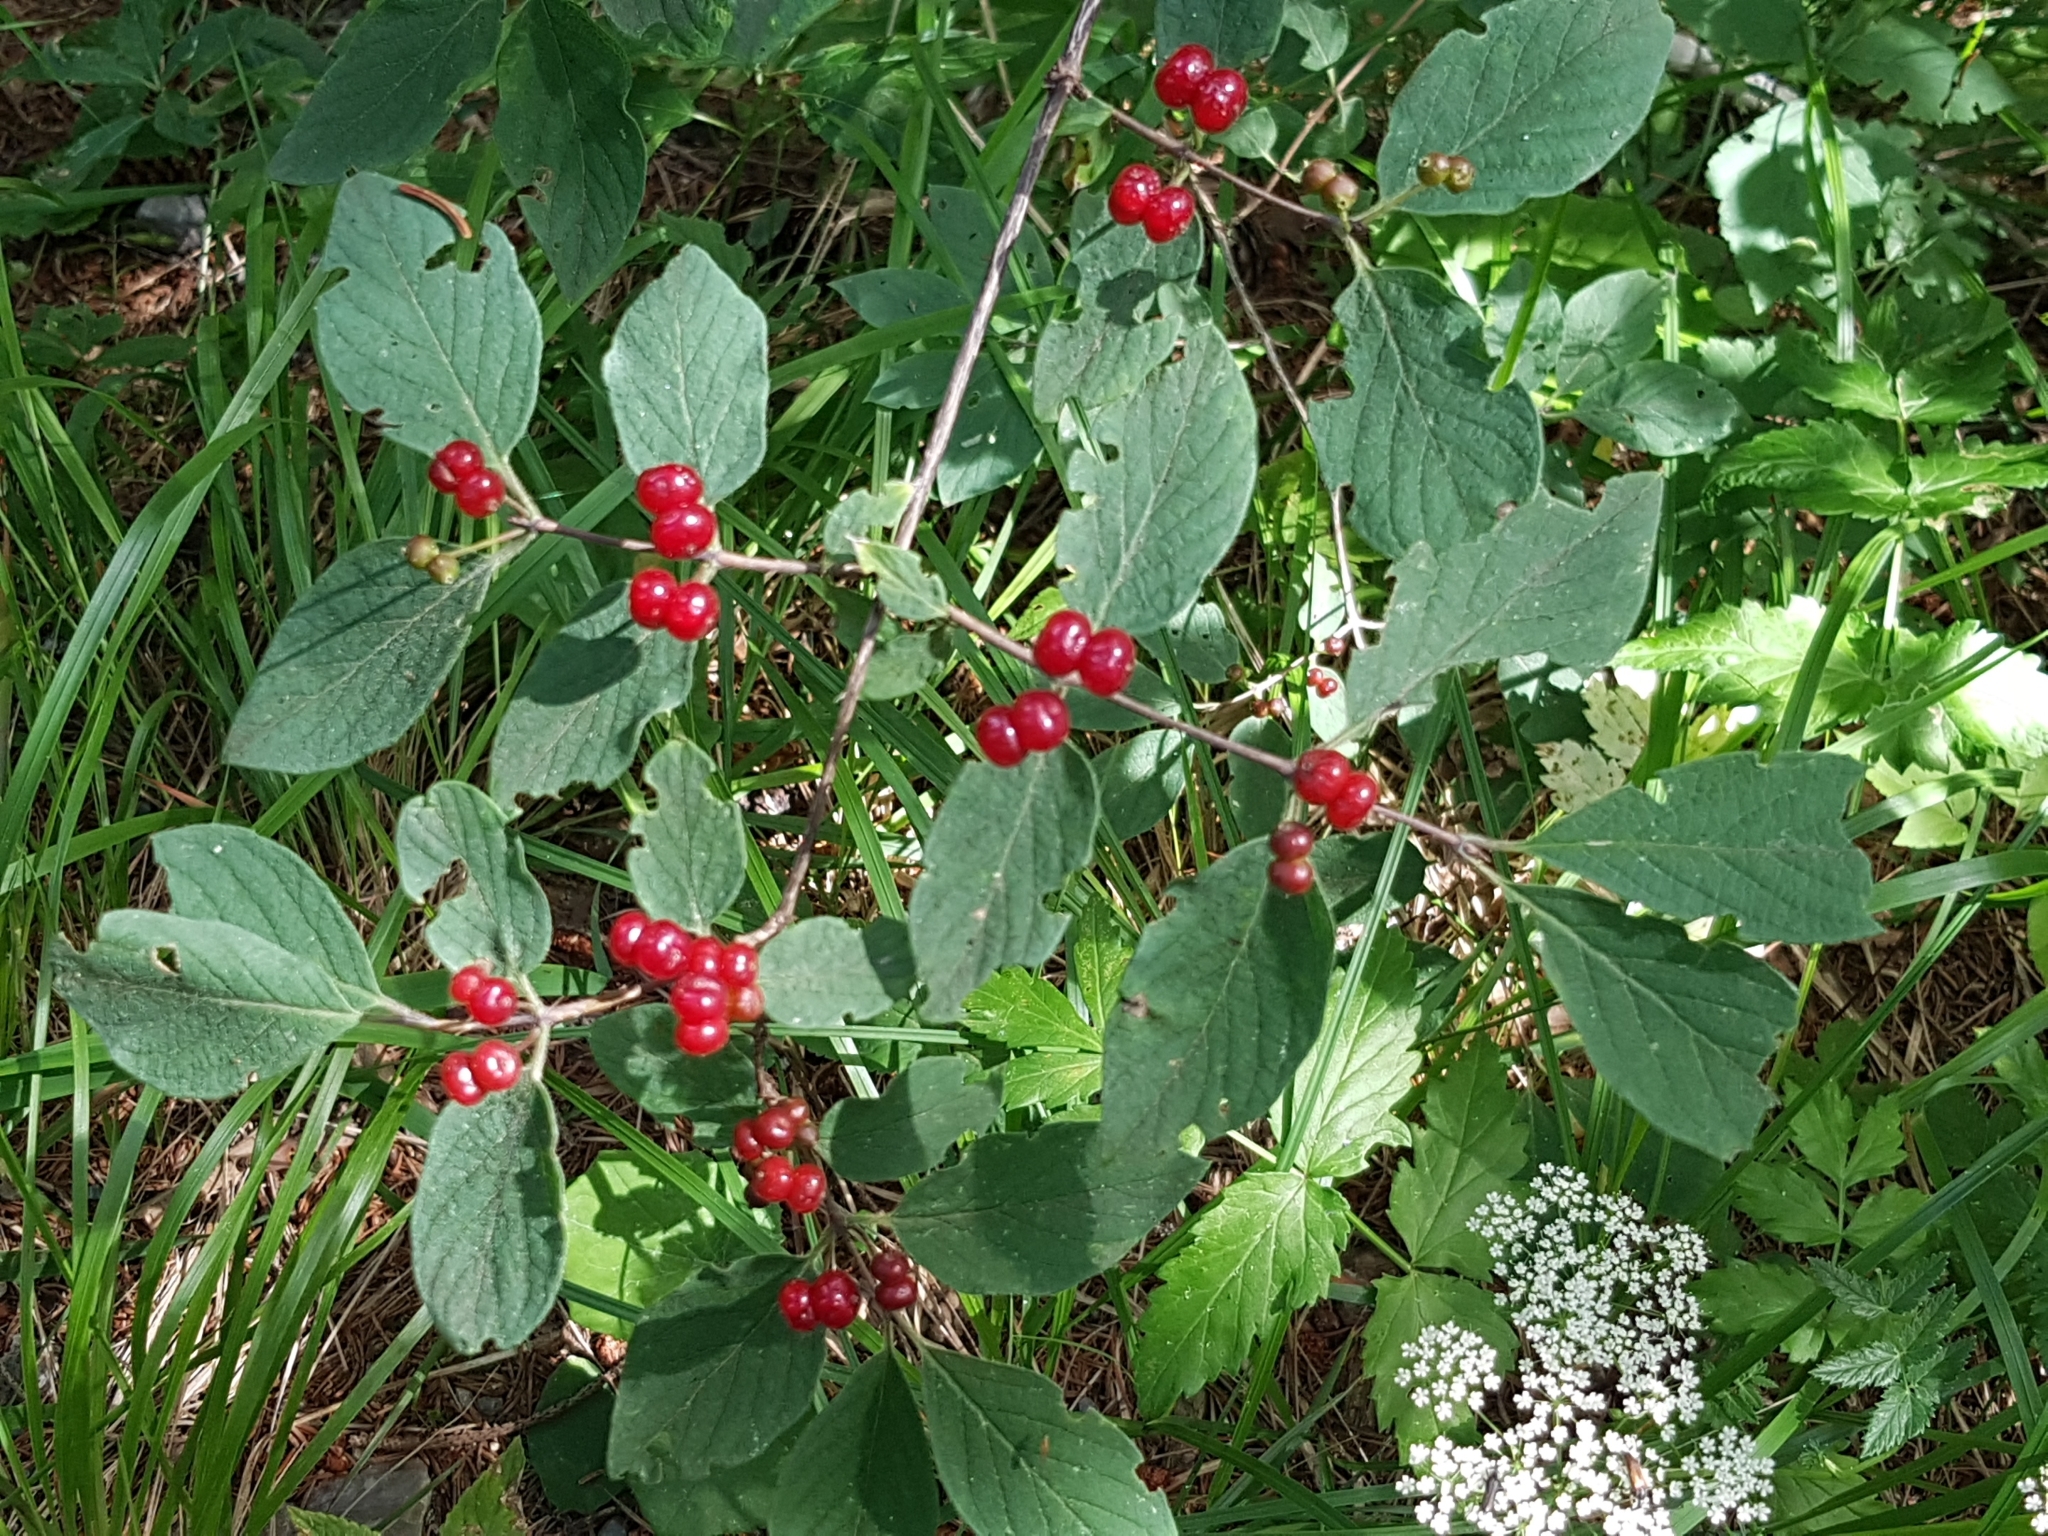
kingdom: Plantae
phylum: Tracheophyta
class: Magnoliopsida
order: Dipsacales
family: Caprifoliaceae
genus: Lonicera
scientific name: Lonicera xylosteum
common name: Fly honeysuckle
